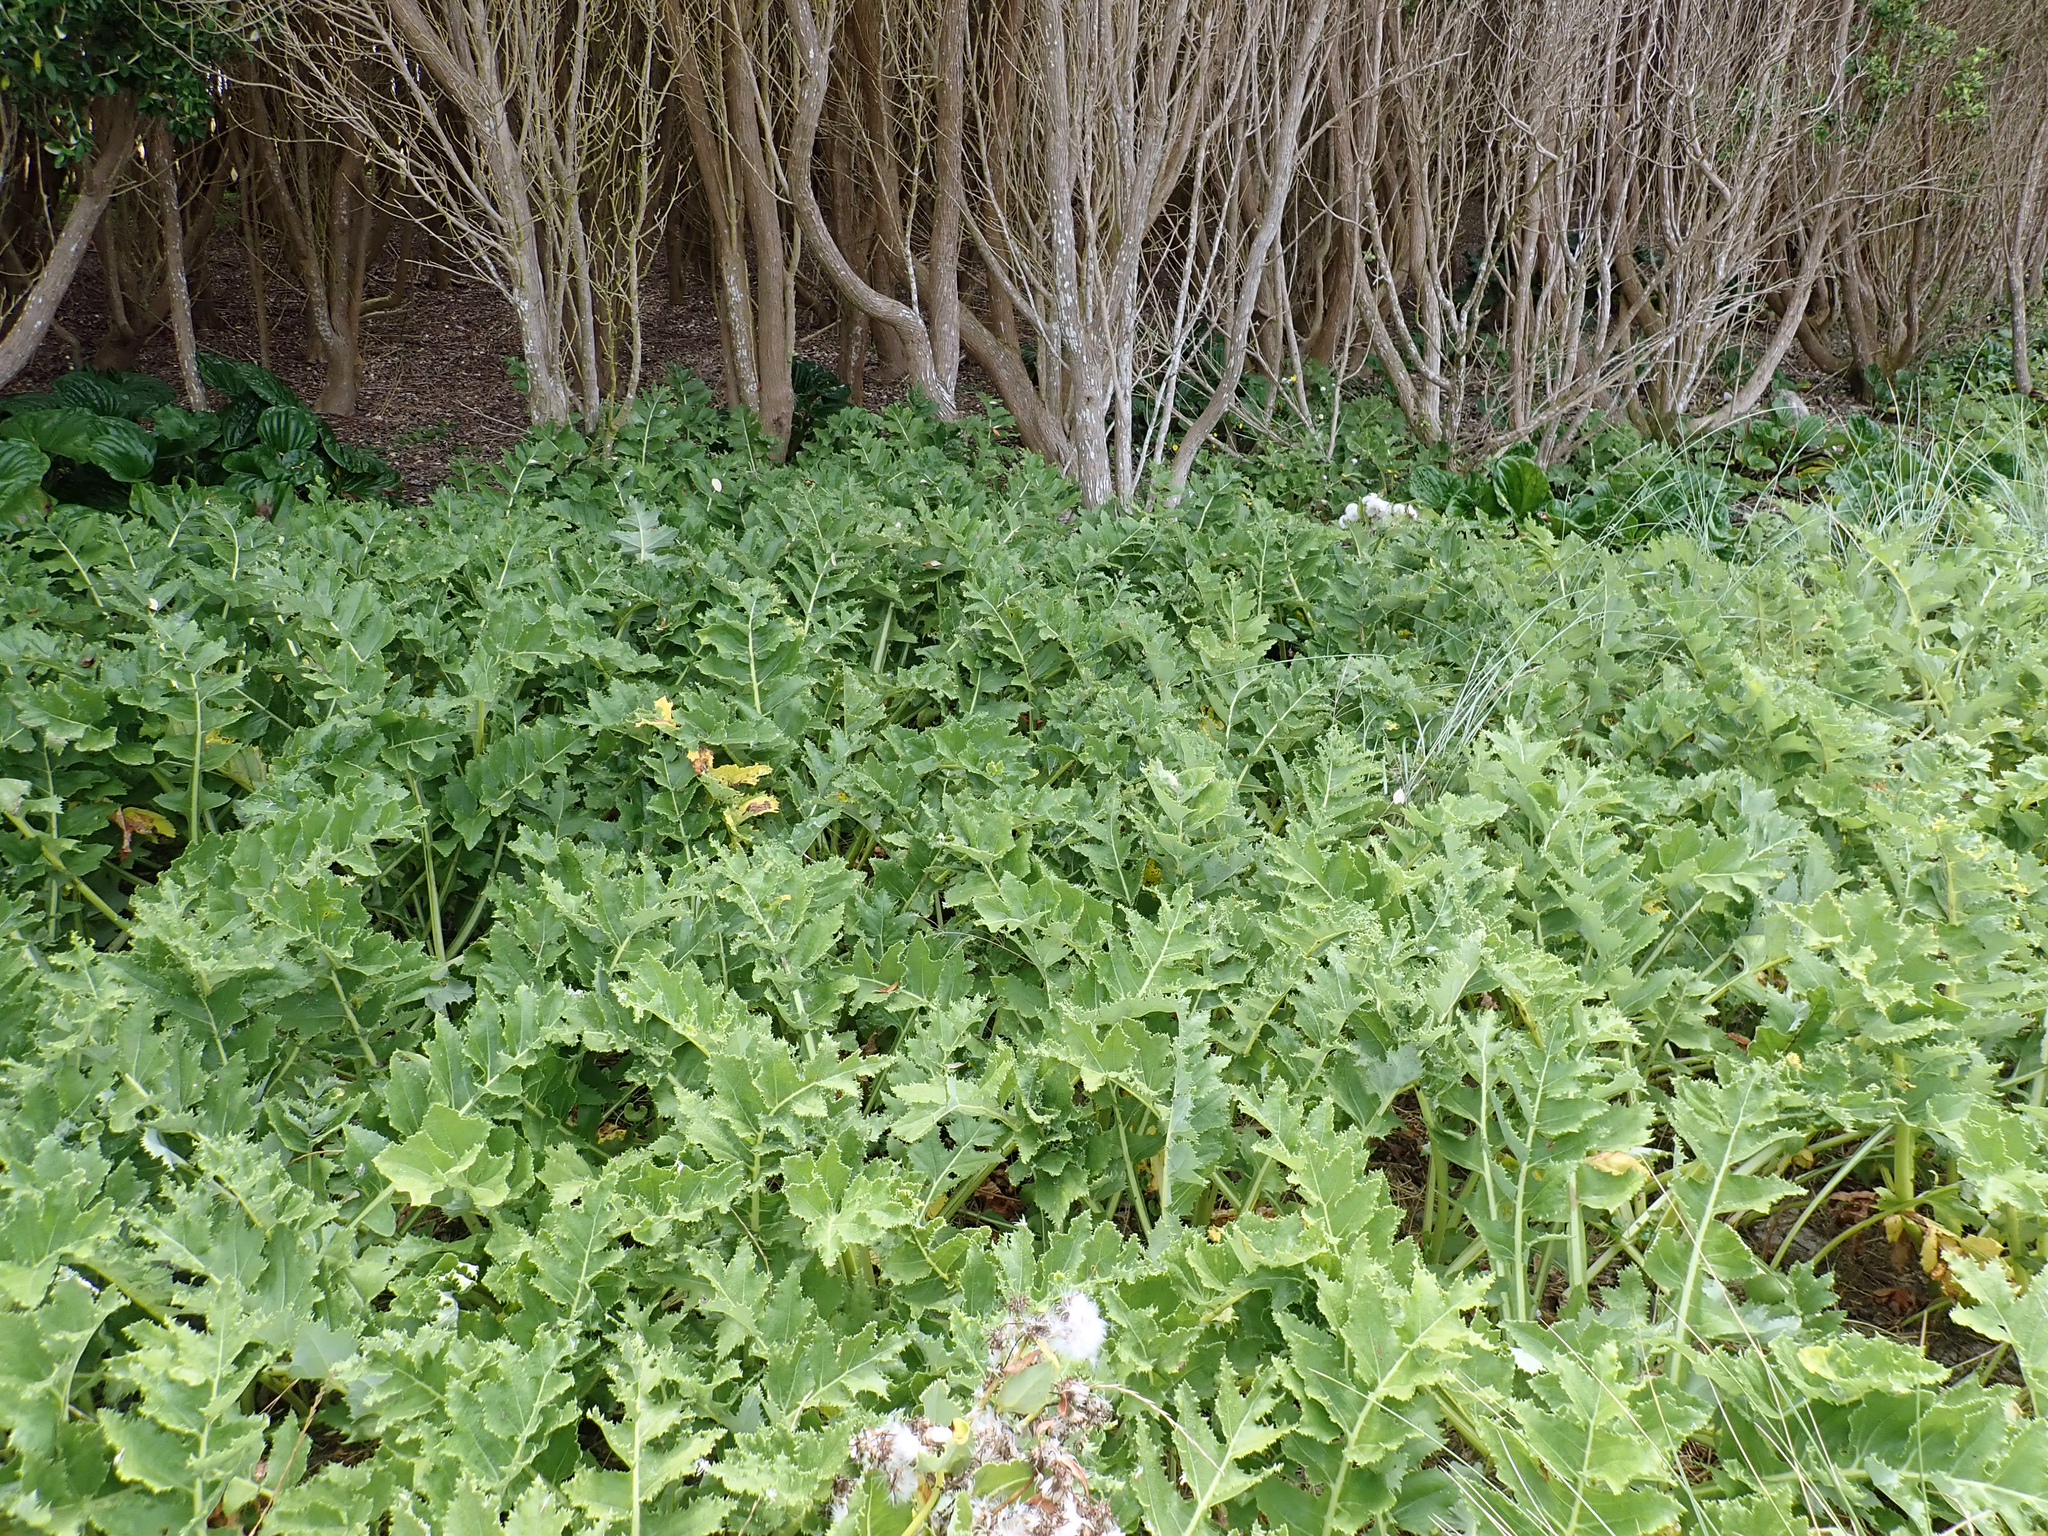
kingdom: Plantae
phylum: Tracheophyta
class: Magnoliopsida
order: Asterales
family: Asteraceae
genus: Sonchus
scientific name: Sonchus grandifolius
